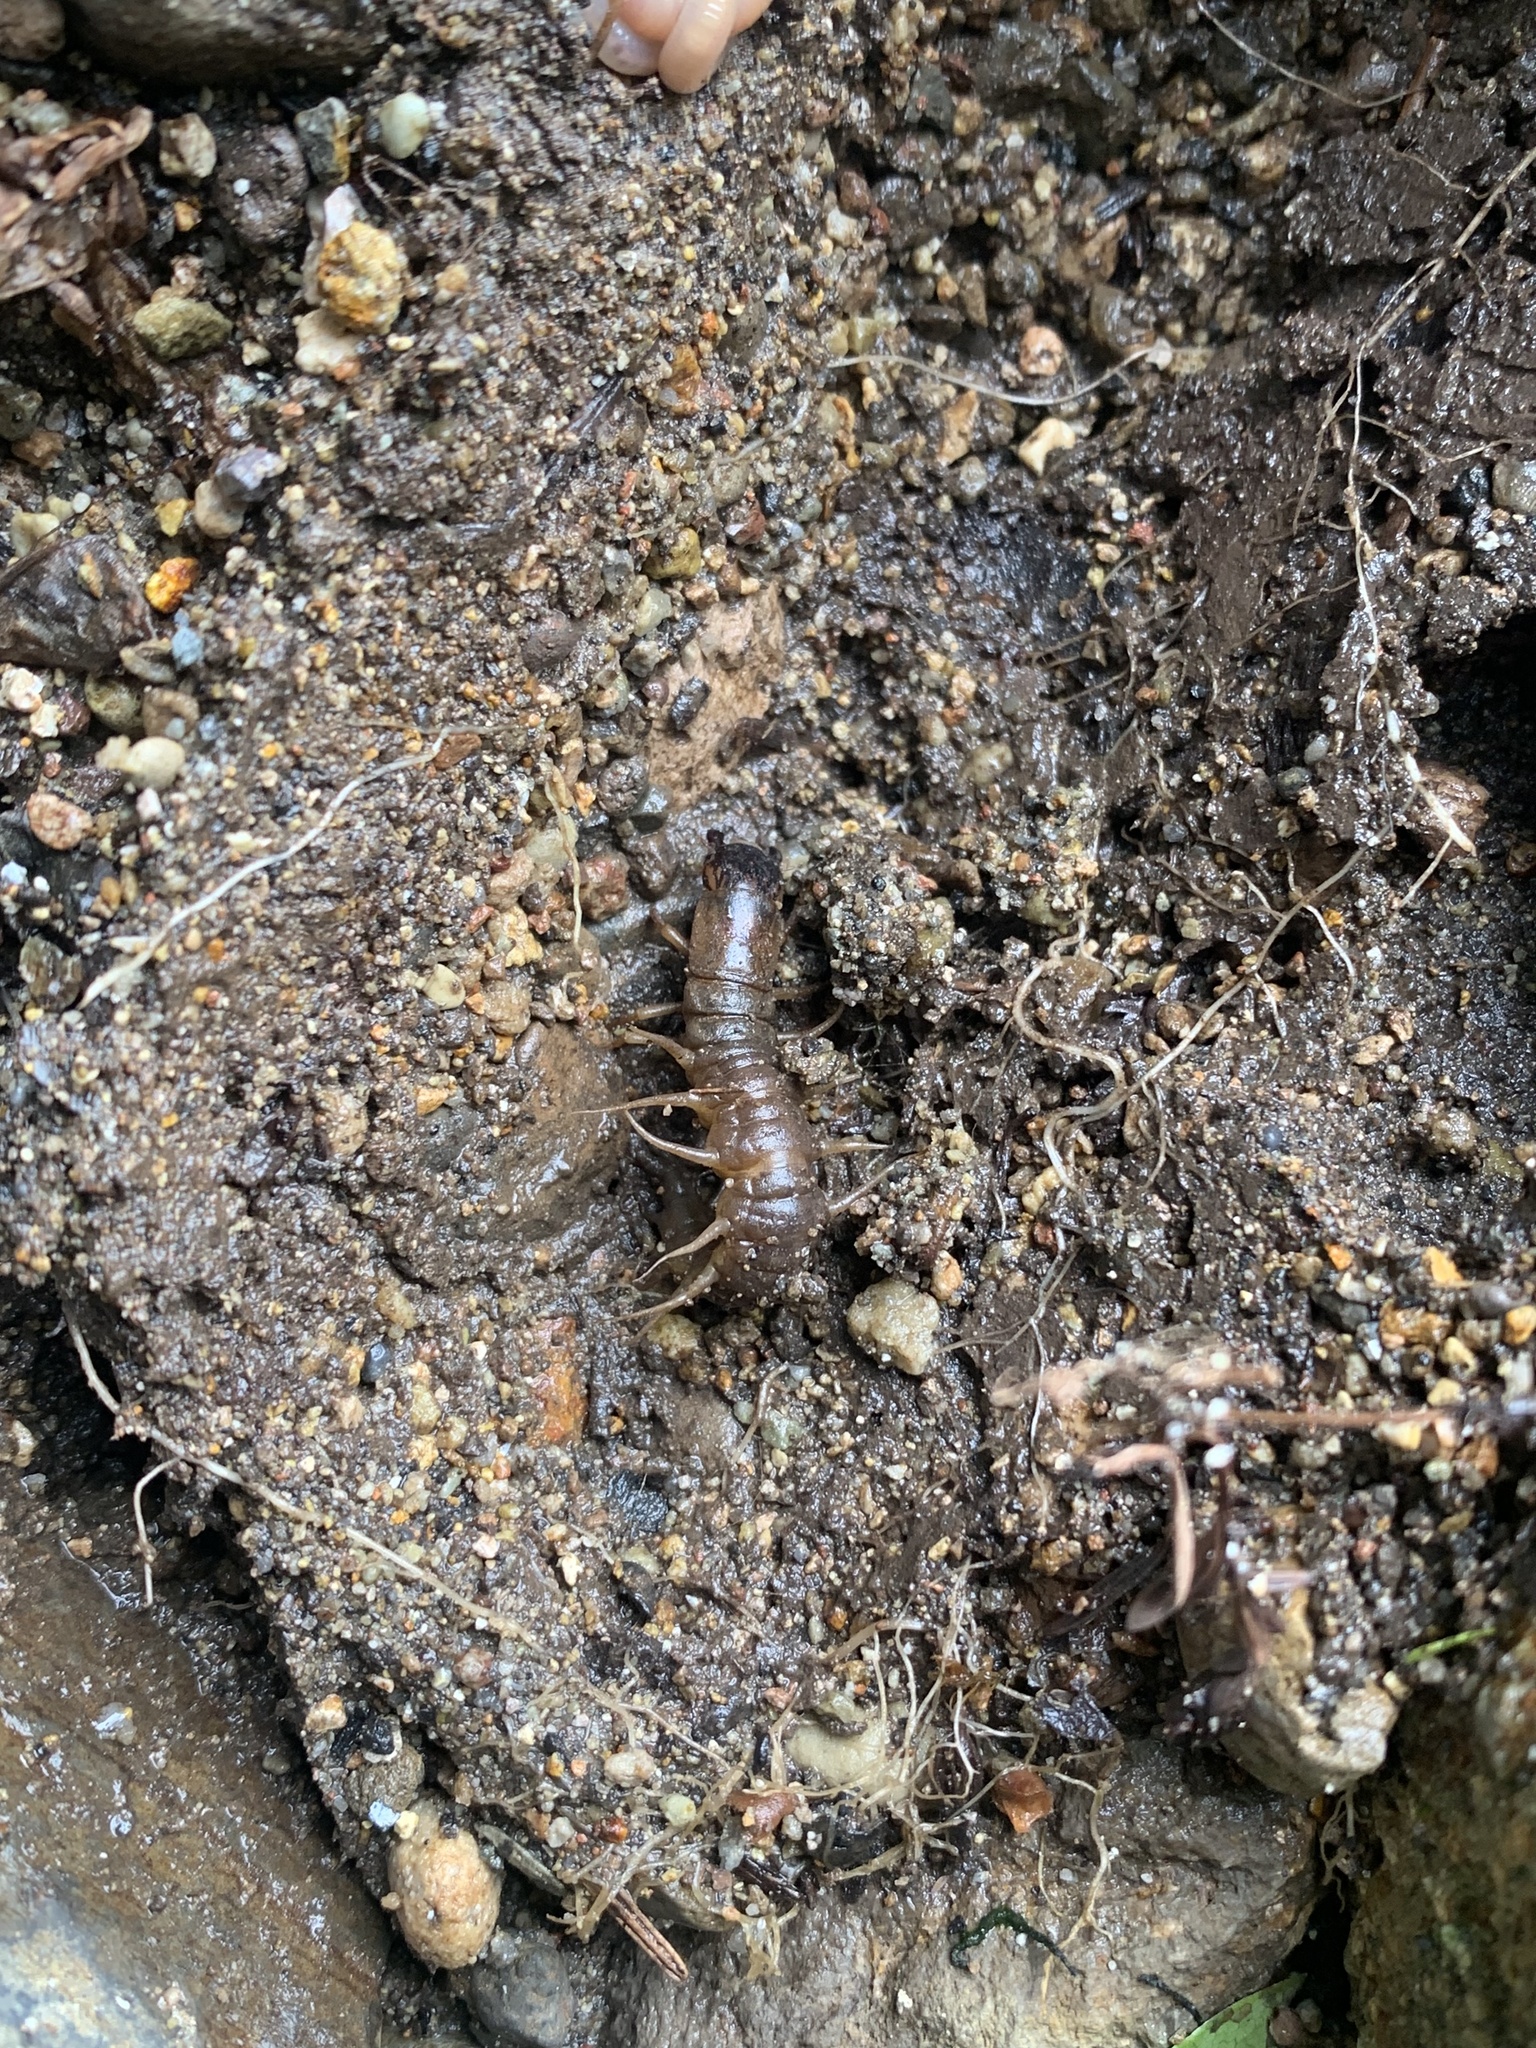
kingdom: Animalia
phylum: Arthropoda
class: Insecta
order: Megaloptera
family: Corydalidae
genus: Neohermes
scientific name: Neohermes filicornis
